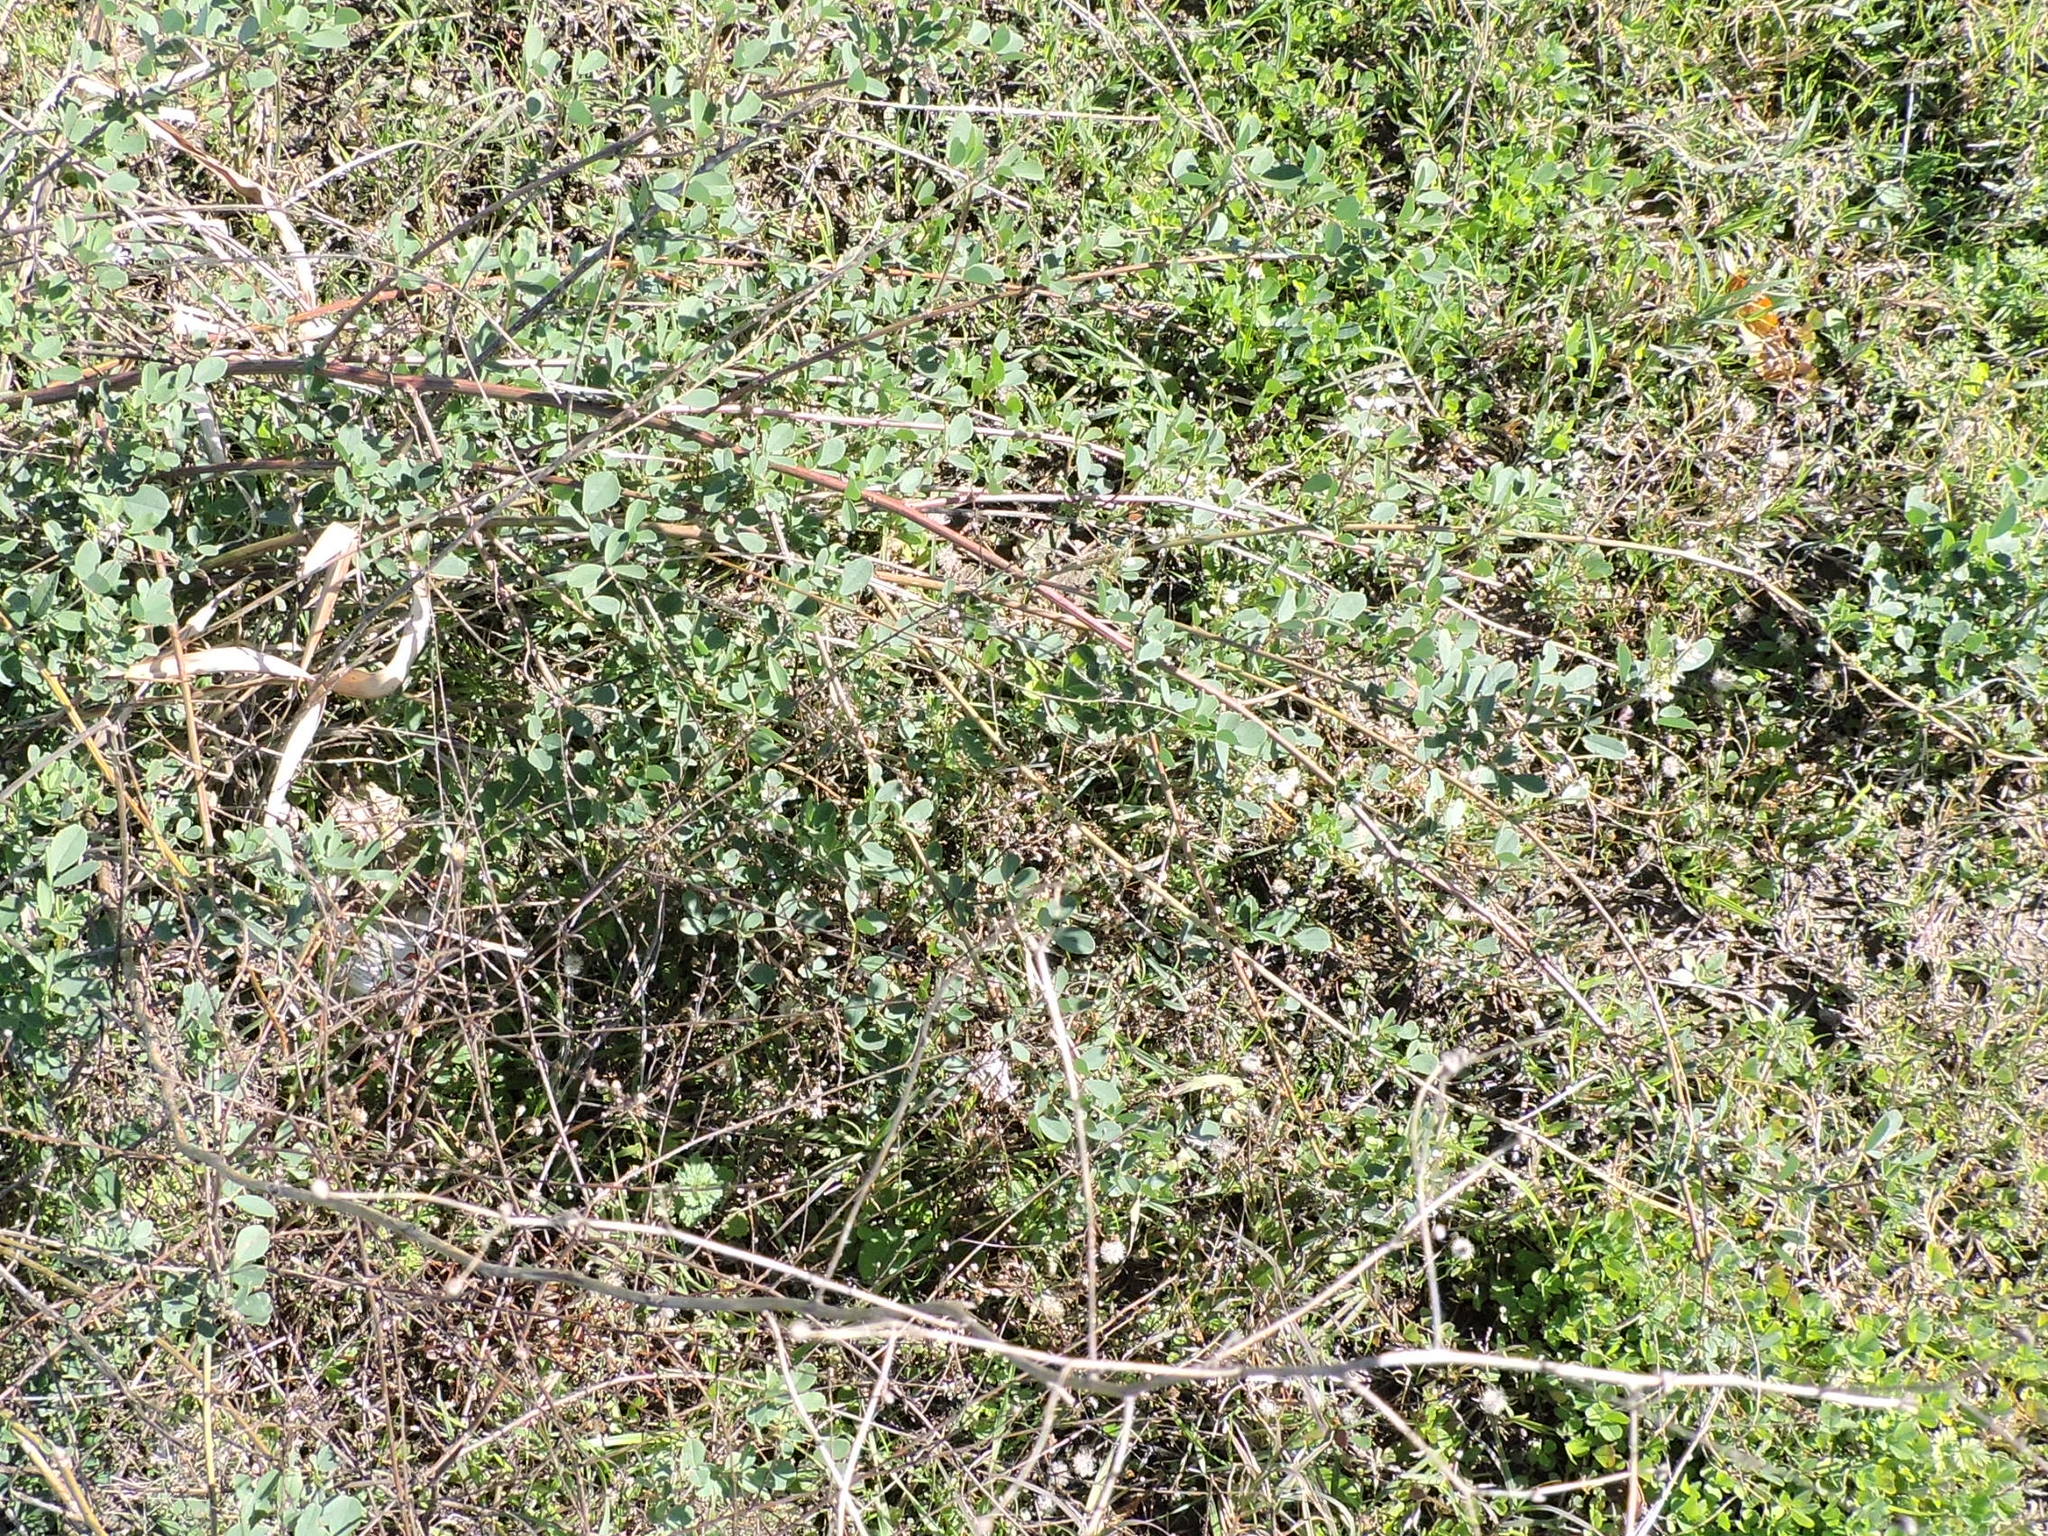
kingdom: Plantae
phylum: Tracheophyta
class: Magnoliopsida
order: Fabales
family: Fabaceae
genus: Melilotus
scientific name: Melilotus albus
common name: White melilot
